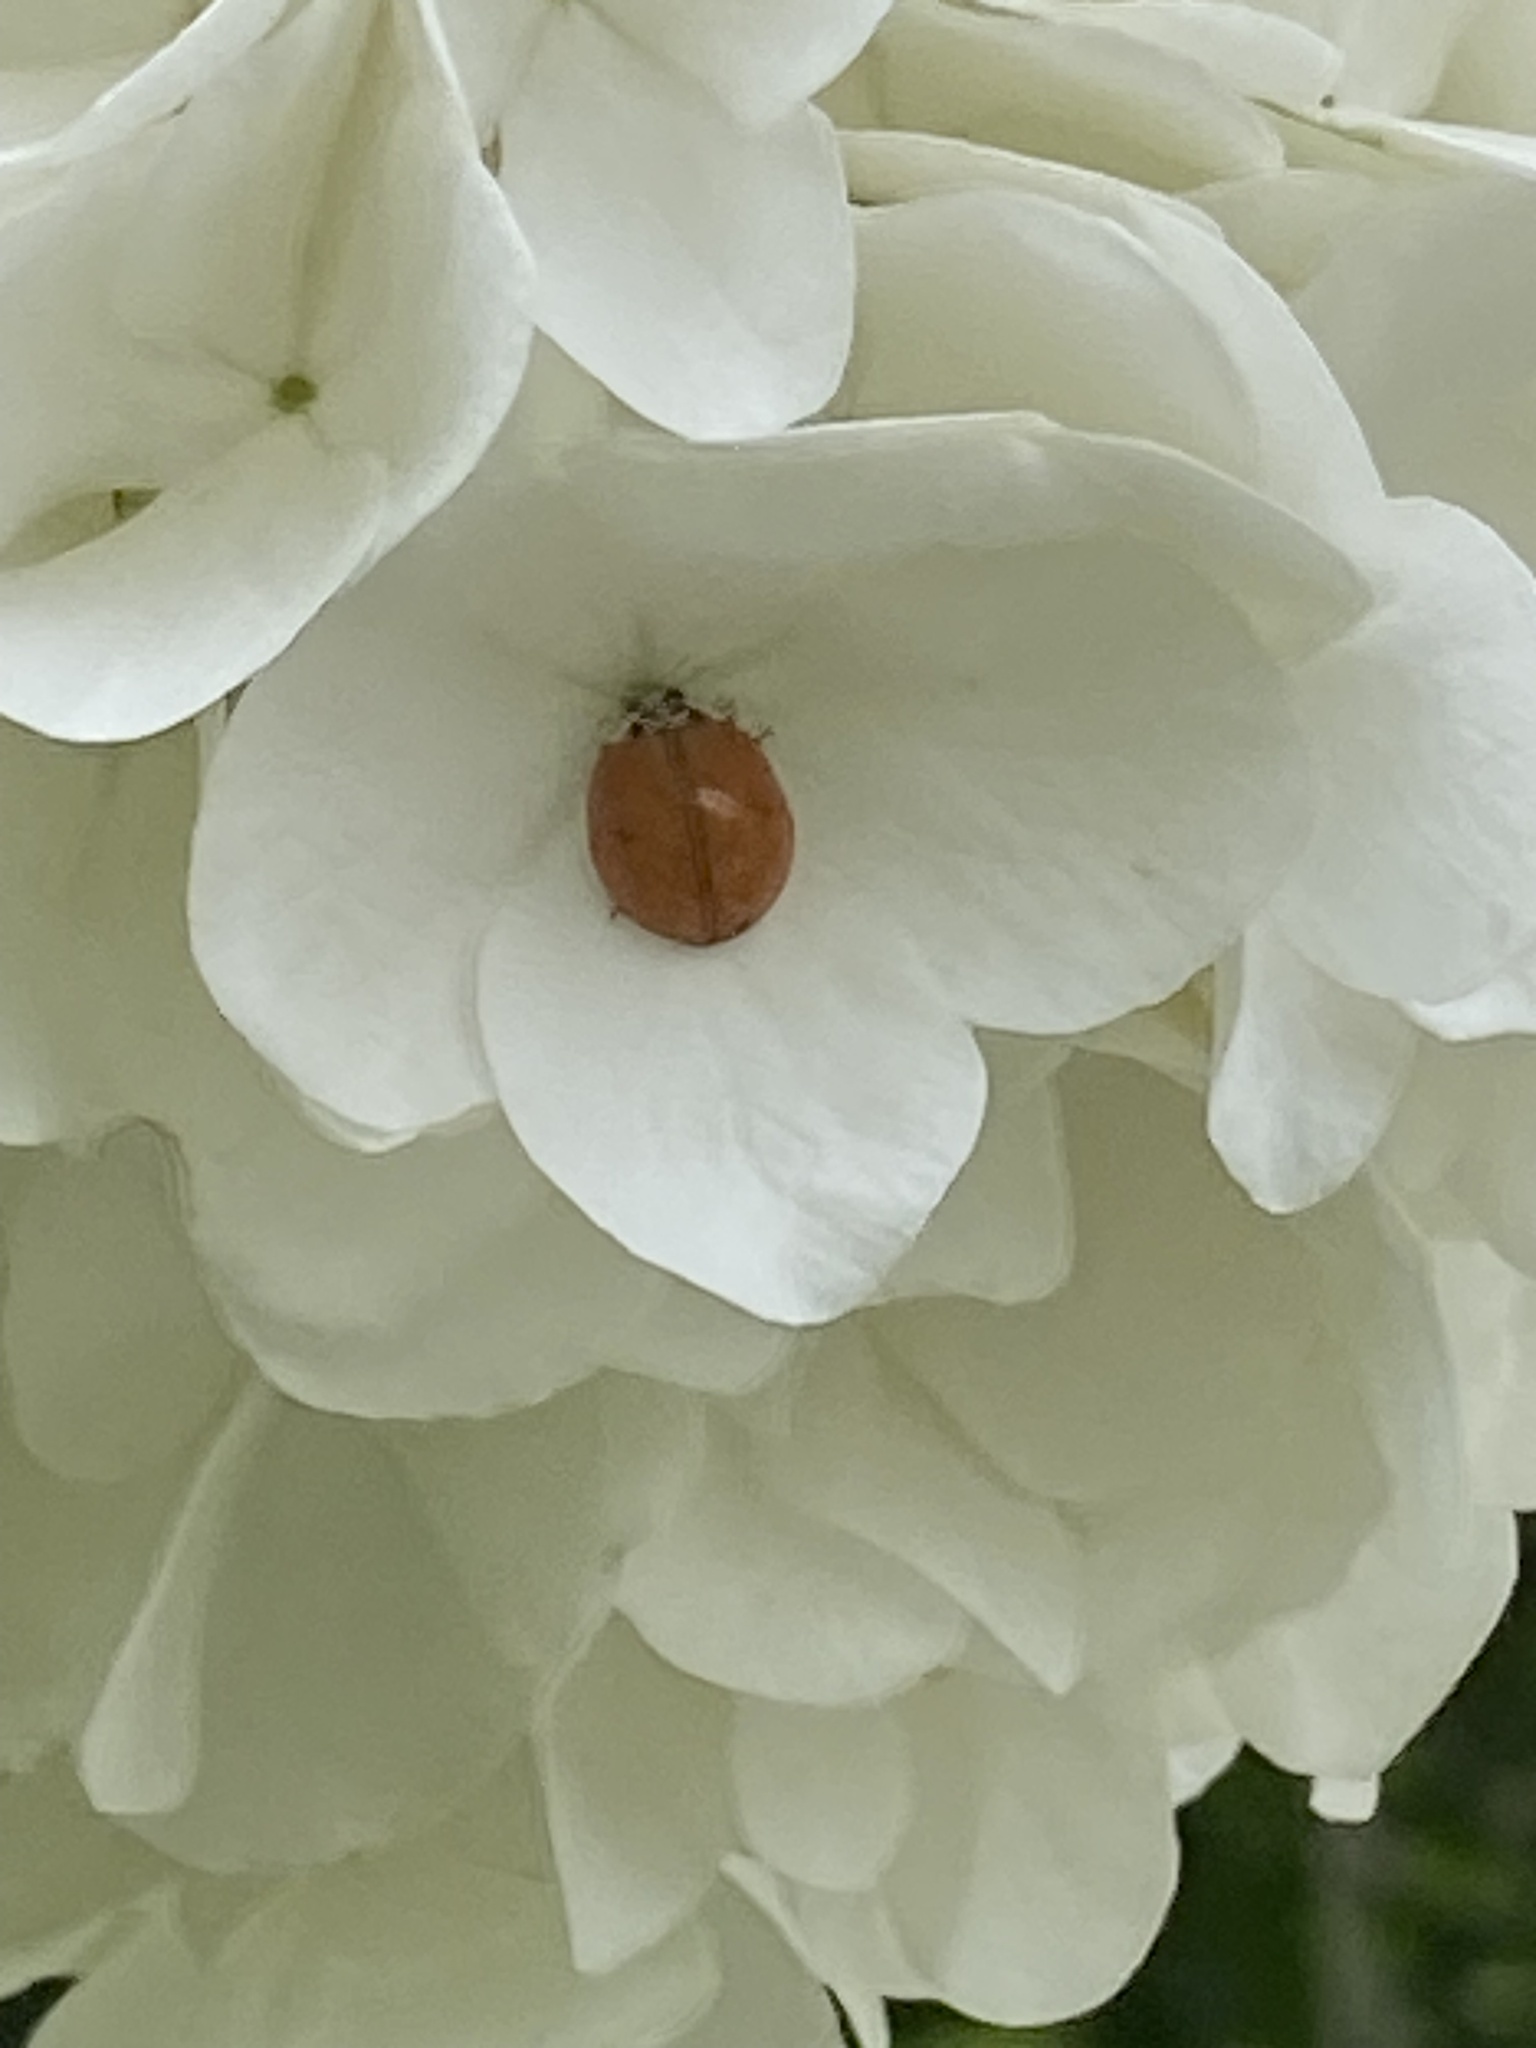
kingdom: Animalia
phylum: Arthropoda
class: Insecta
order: Coleoptera
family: Coccinellidae
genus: Harmonia
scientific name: Harmonia axyridis
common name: Harlequin ladybird
